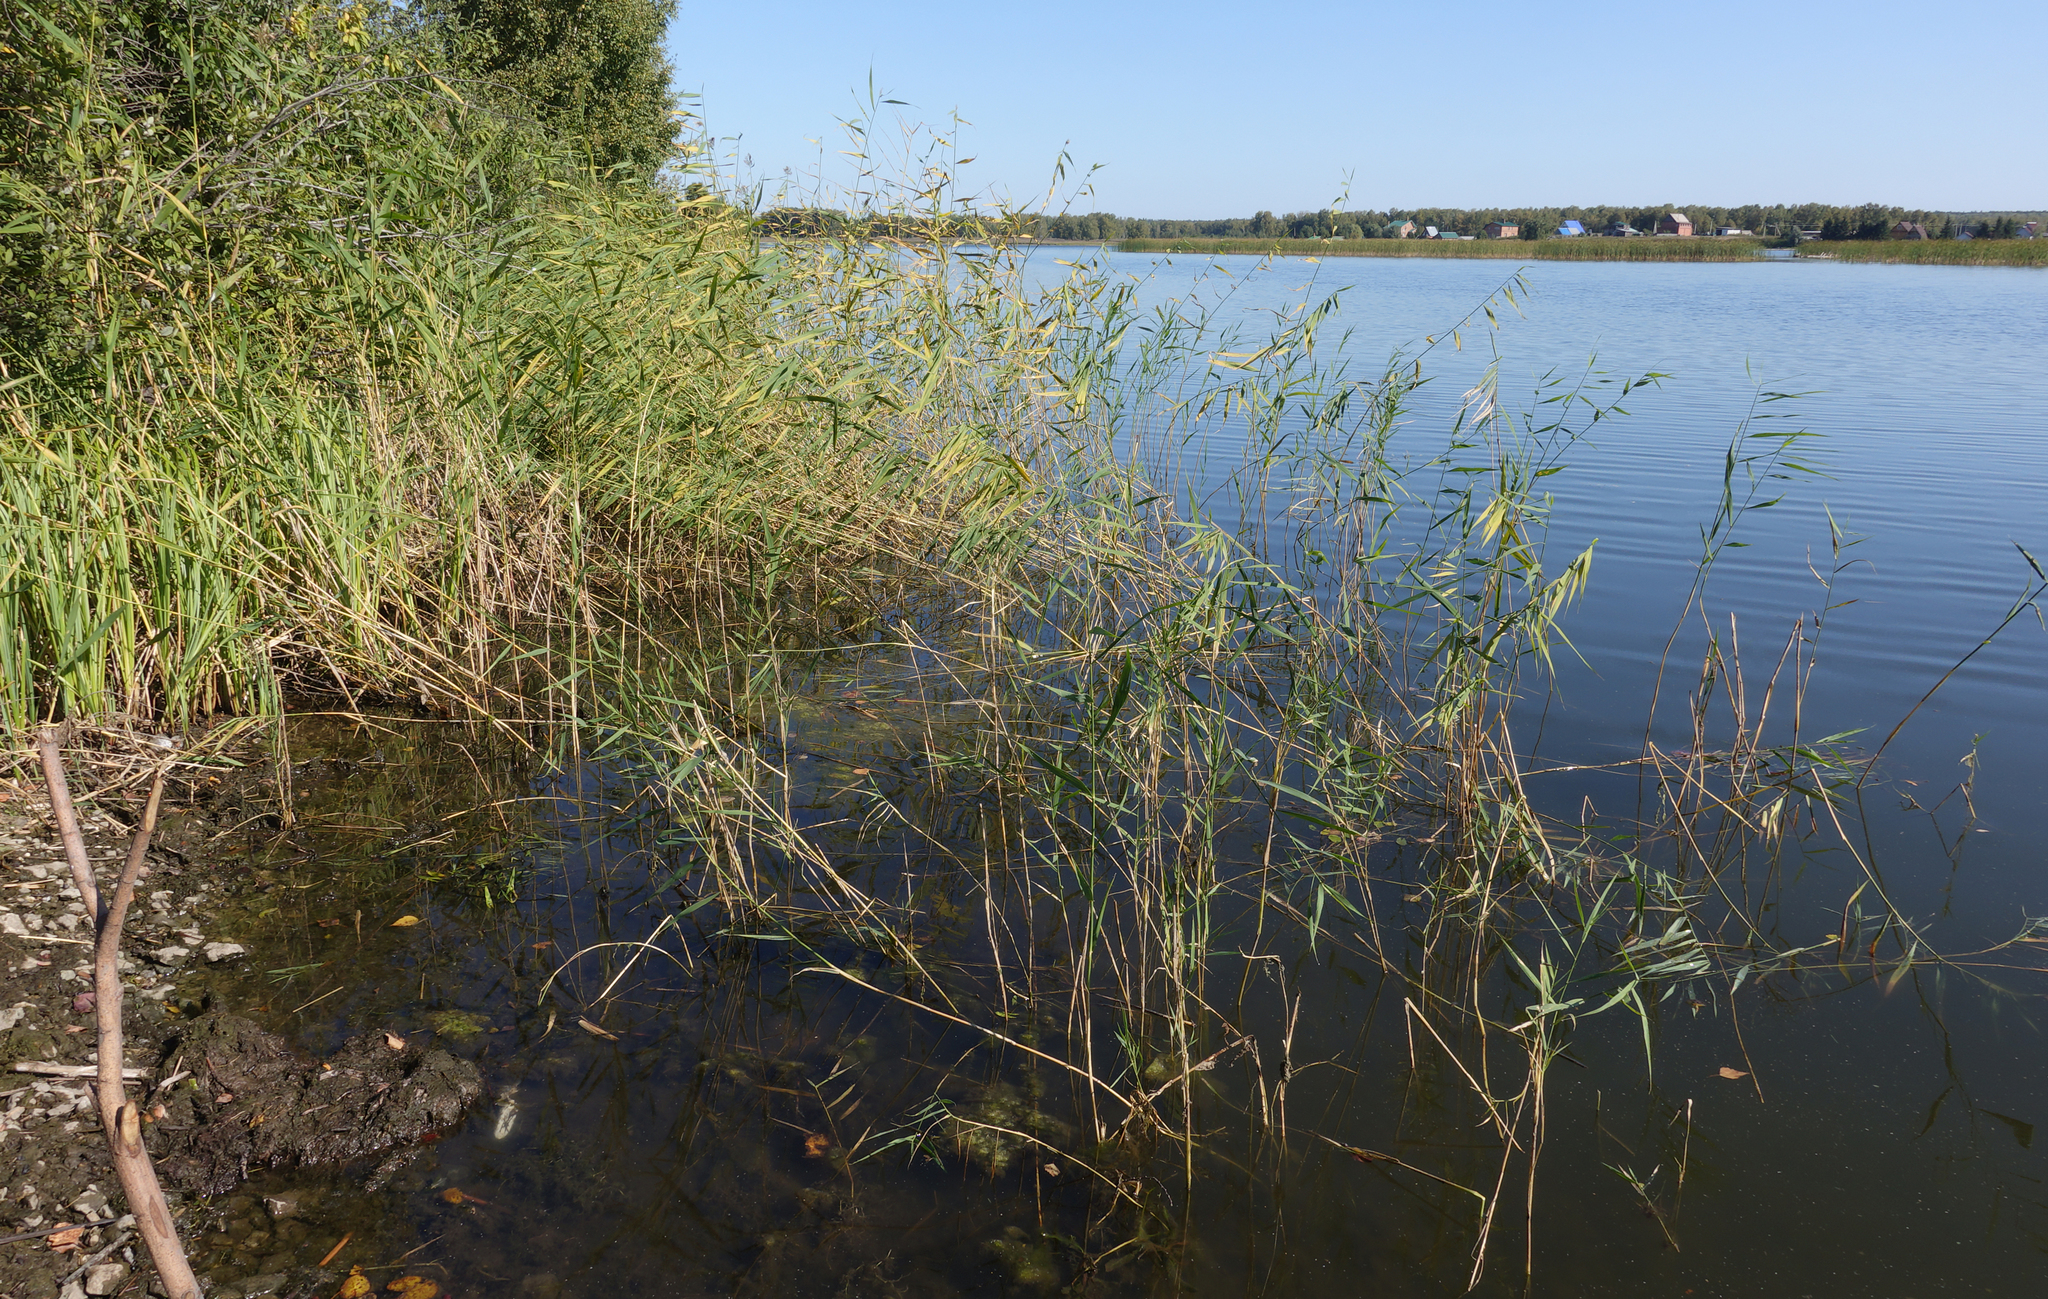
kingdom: Plantae
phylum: Tracheophyta
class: Liliopsida
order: Poales
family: Poaceae
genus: Phragmites
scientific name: Phragmites australis
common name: Common reed
